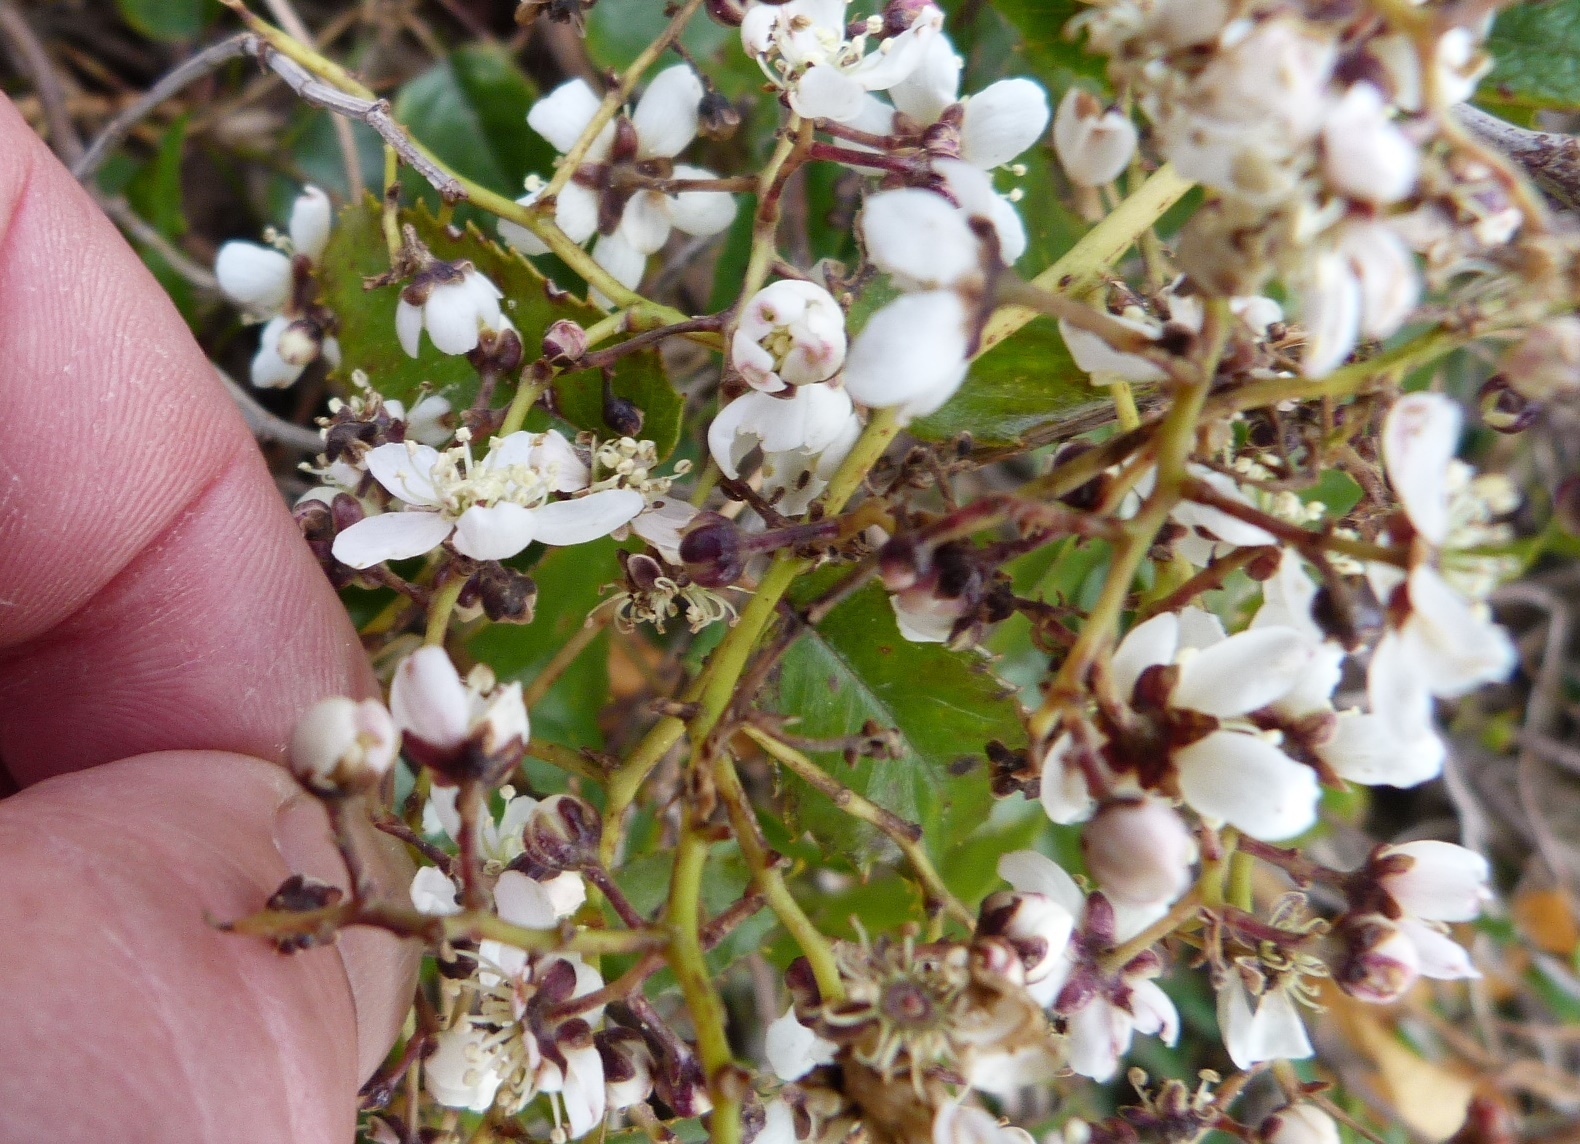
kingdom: Plantae
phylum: Tracheophyta
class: Magnoliopsida
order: Rosales
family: Rosaceae
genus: Rubus
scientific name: Rubus cissoides
